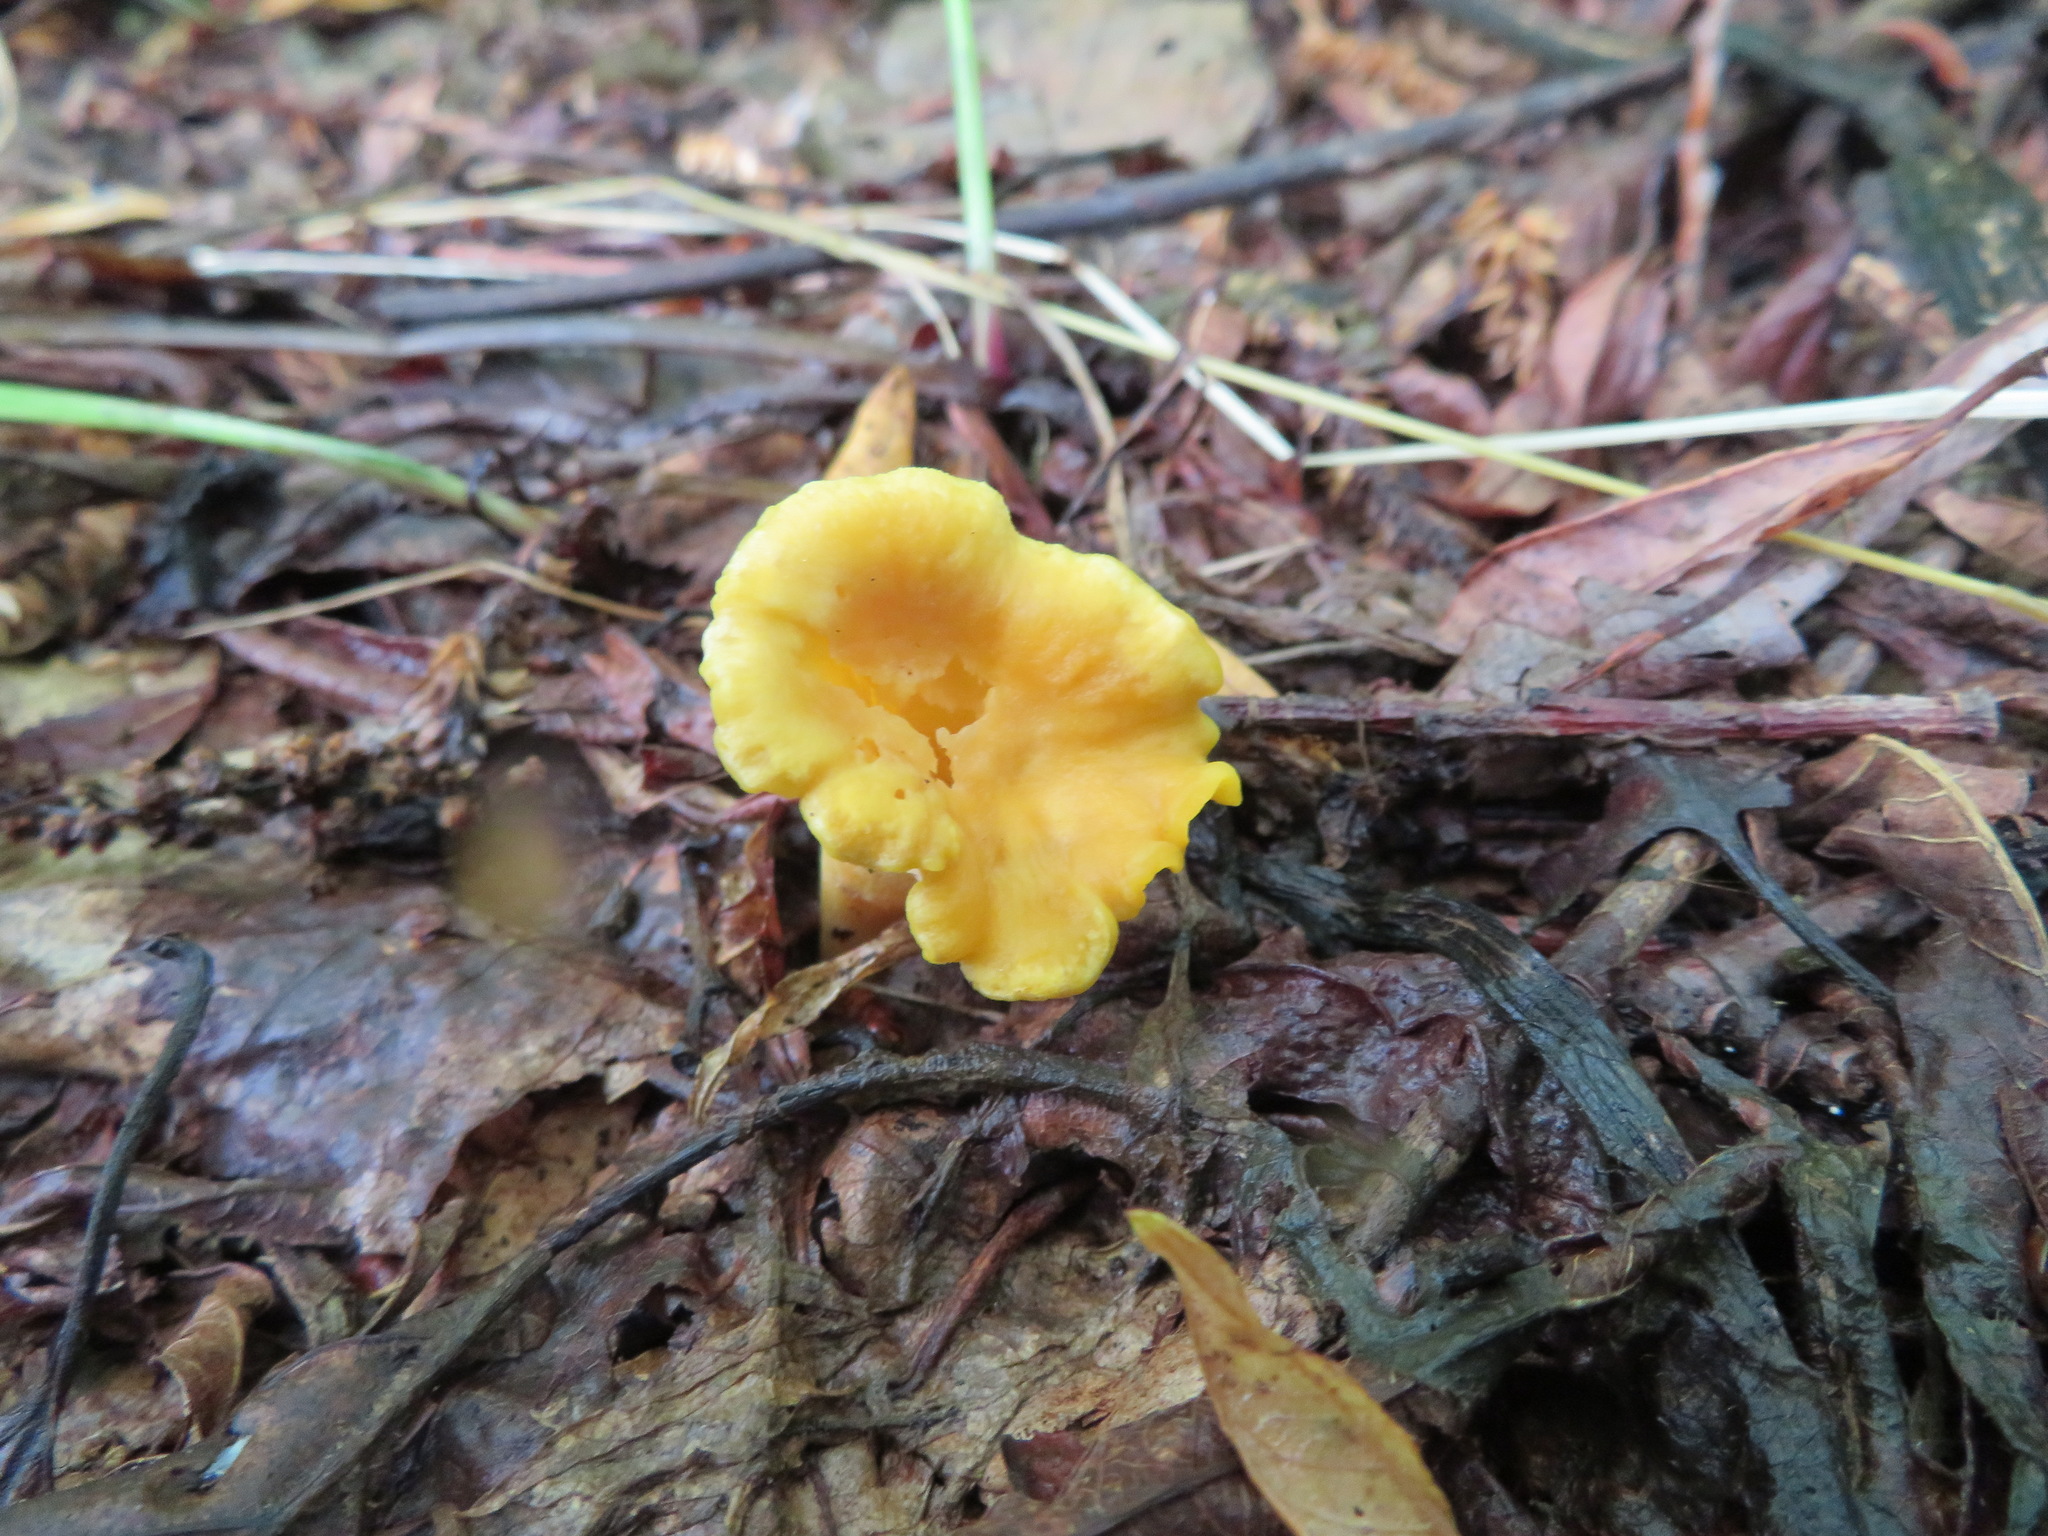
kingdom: Fungi
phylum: Basidiomycota
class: Agaricomycetes
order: Cantharellales
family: Hydnaceae
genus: Cantharellus
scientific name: Cantharellus cibarius
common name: Chanterelle
